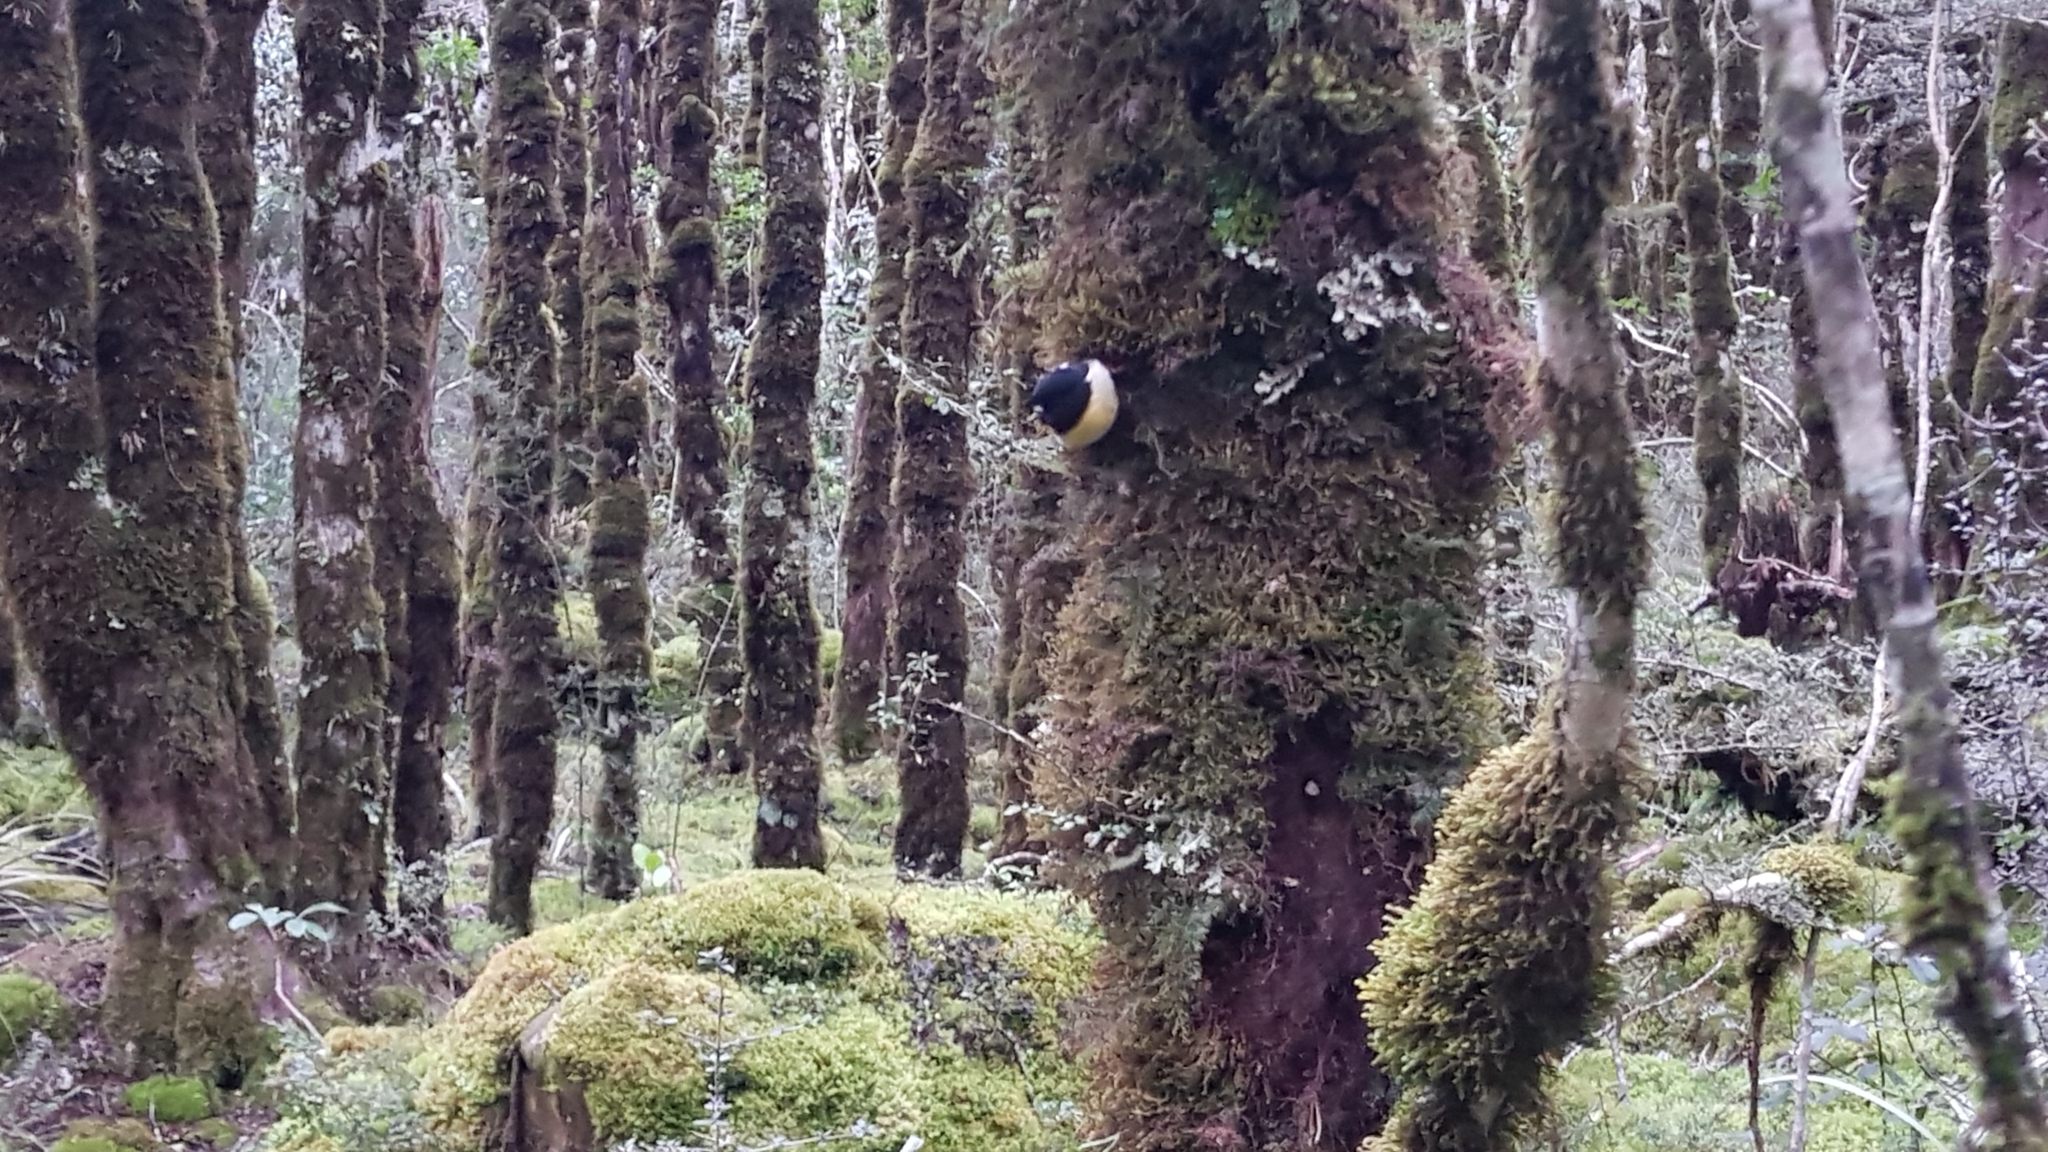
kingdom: Animalia
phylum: Chordata
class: Aves
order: Passeriformes
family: Petroicidae
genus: Petroica
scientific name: Petroica macrocephala
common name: Tomtit
